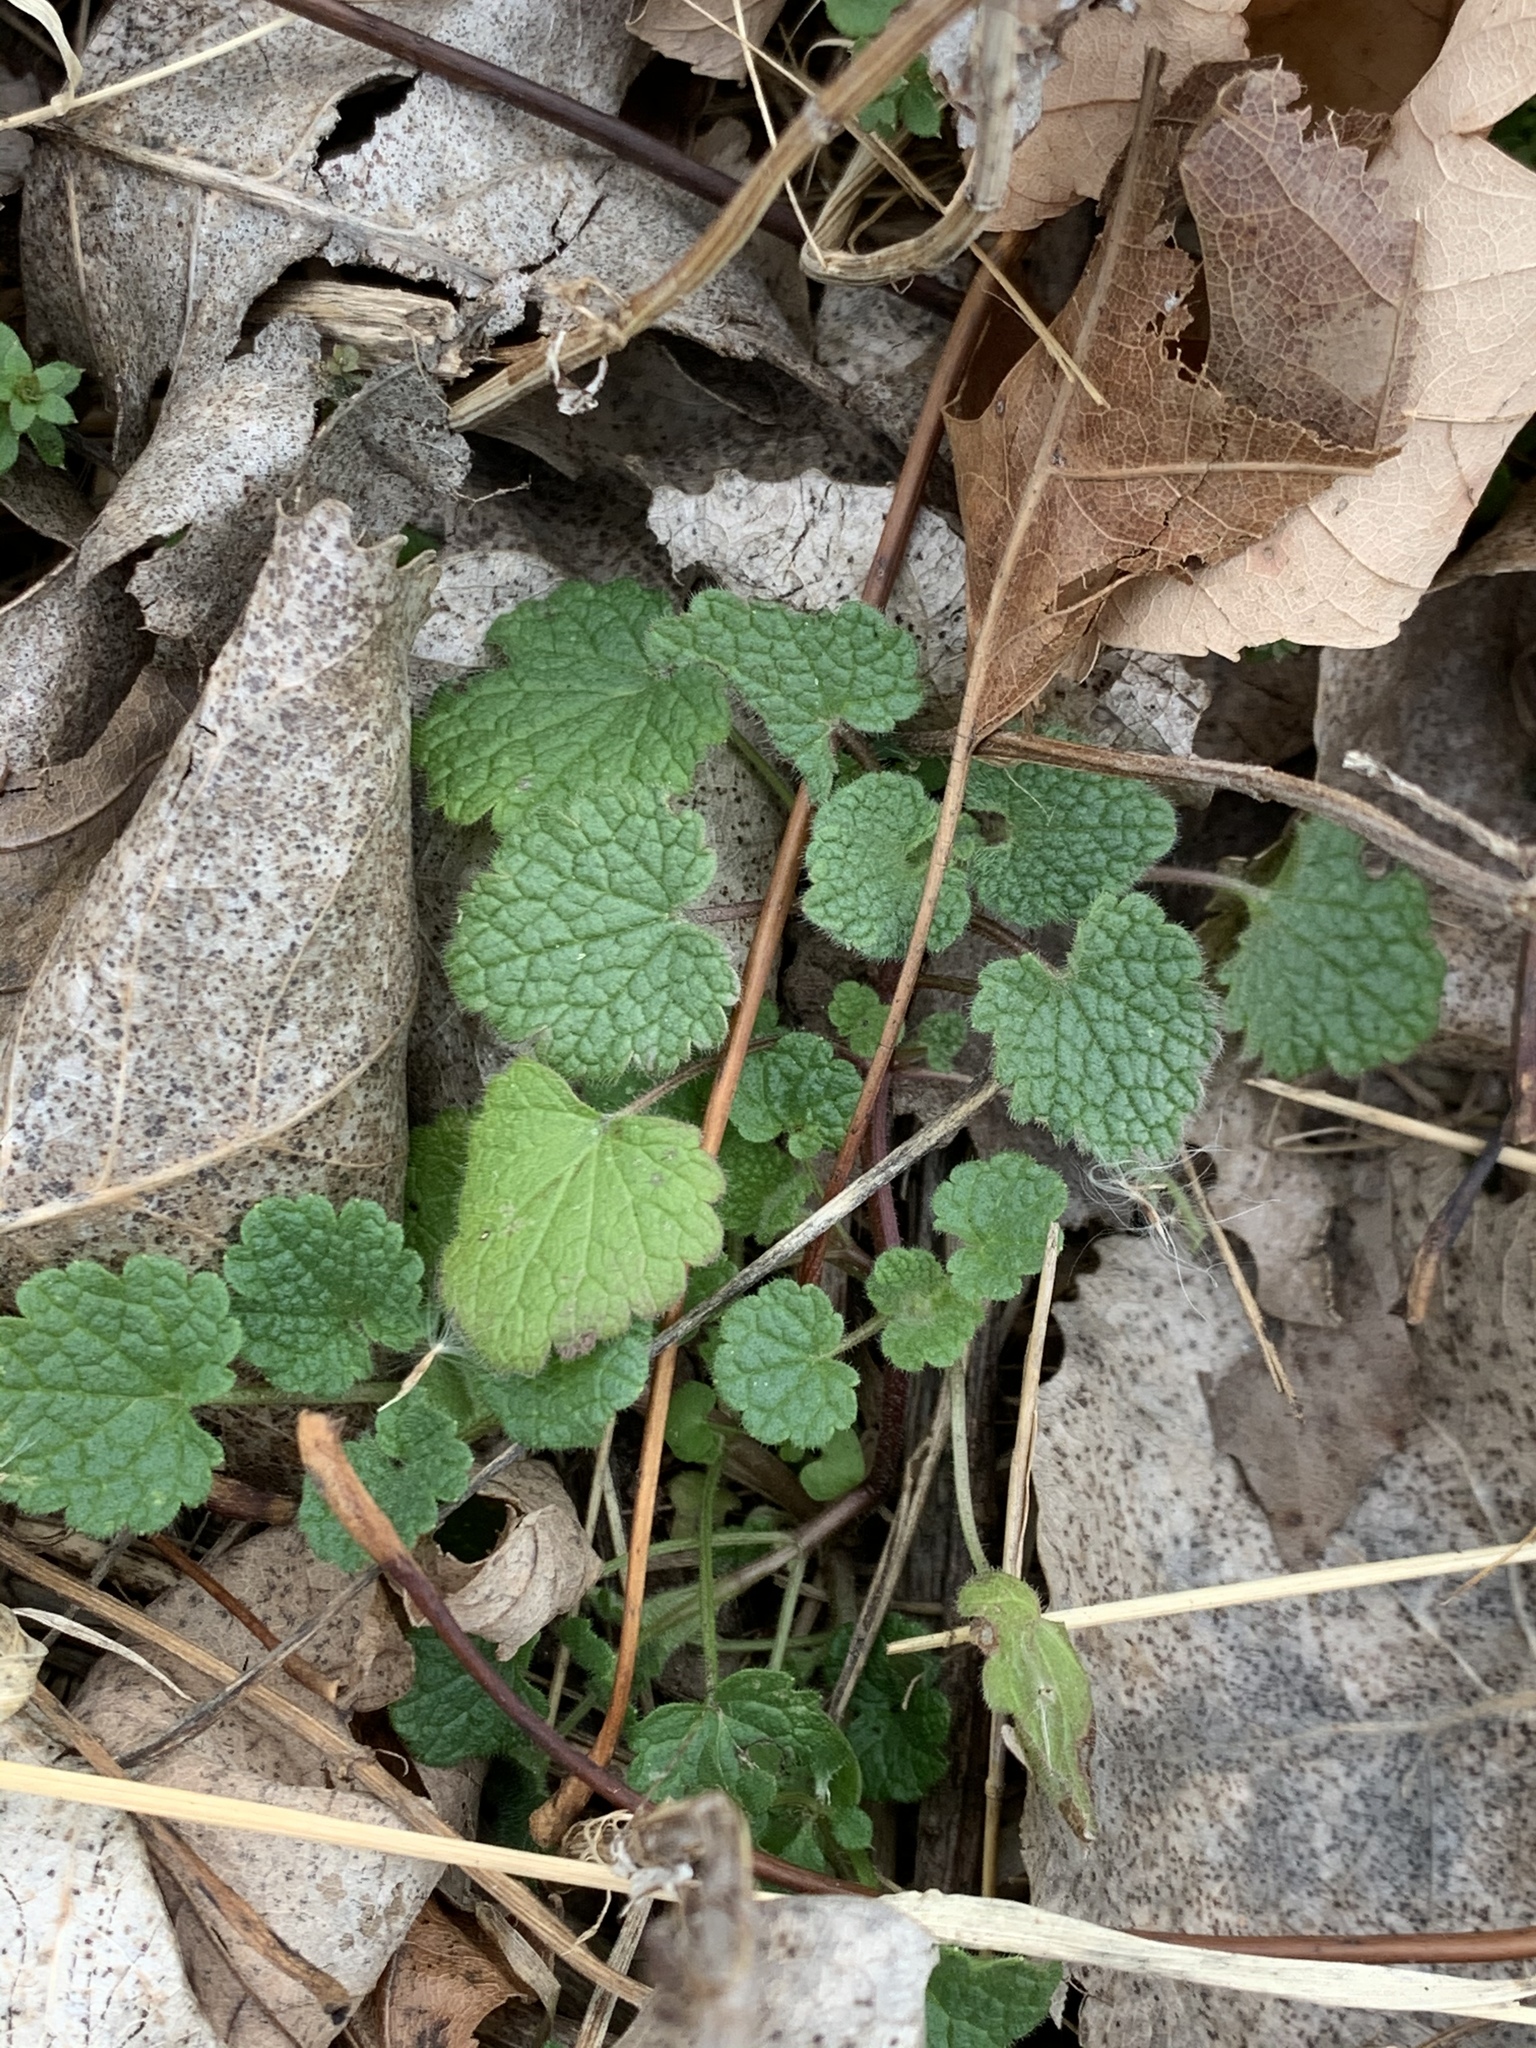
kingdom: Plantae
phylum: Tracheophyta
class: Magnoliopsida
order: Lamiales
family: Lamiaceae
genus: Lamium
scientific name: Lamium purpureum
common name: Red dead-nettle
